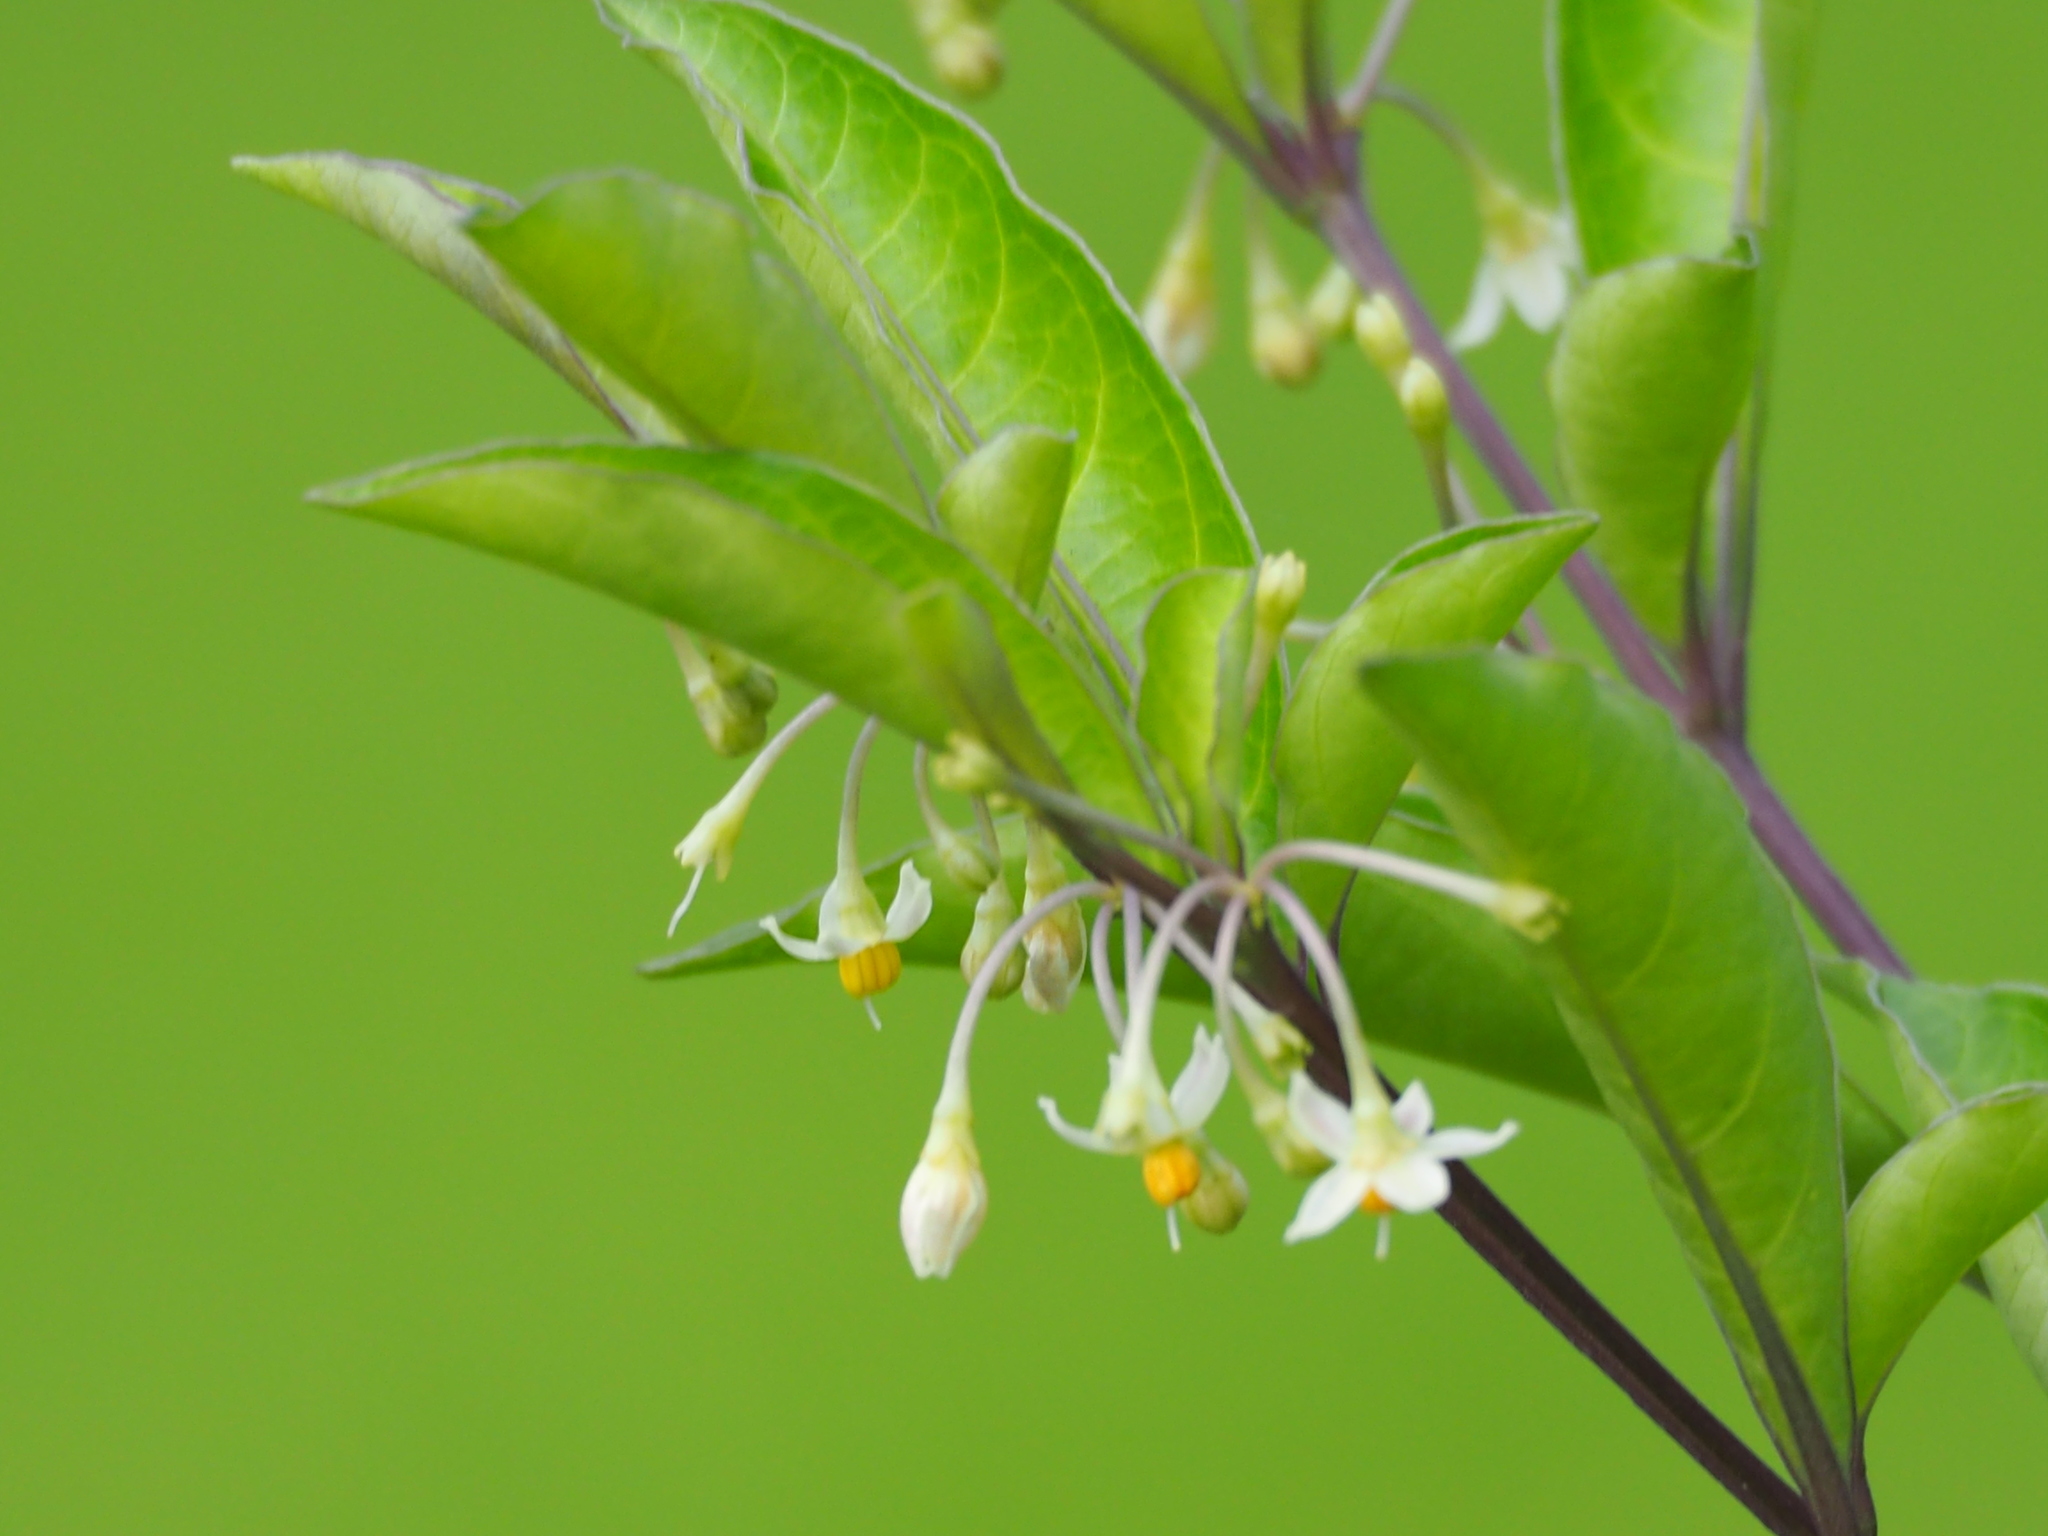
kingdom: Plantae
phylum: Tracheophyta
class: Magnoliopsida
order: Solanales
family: Solanaceae
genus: Solanum
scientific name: Solanum diphyllum
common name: Twoleaf nightshade
